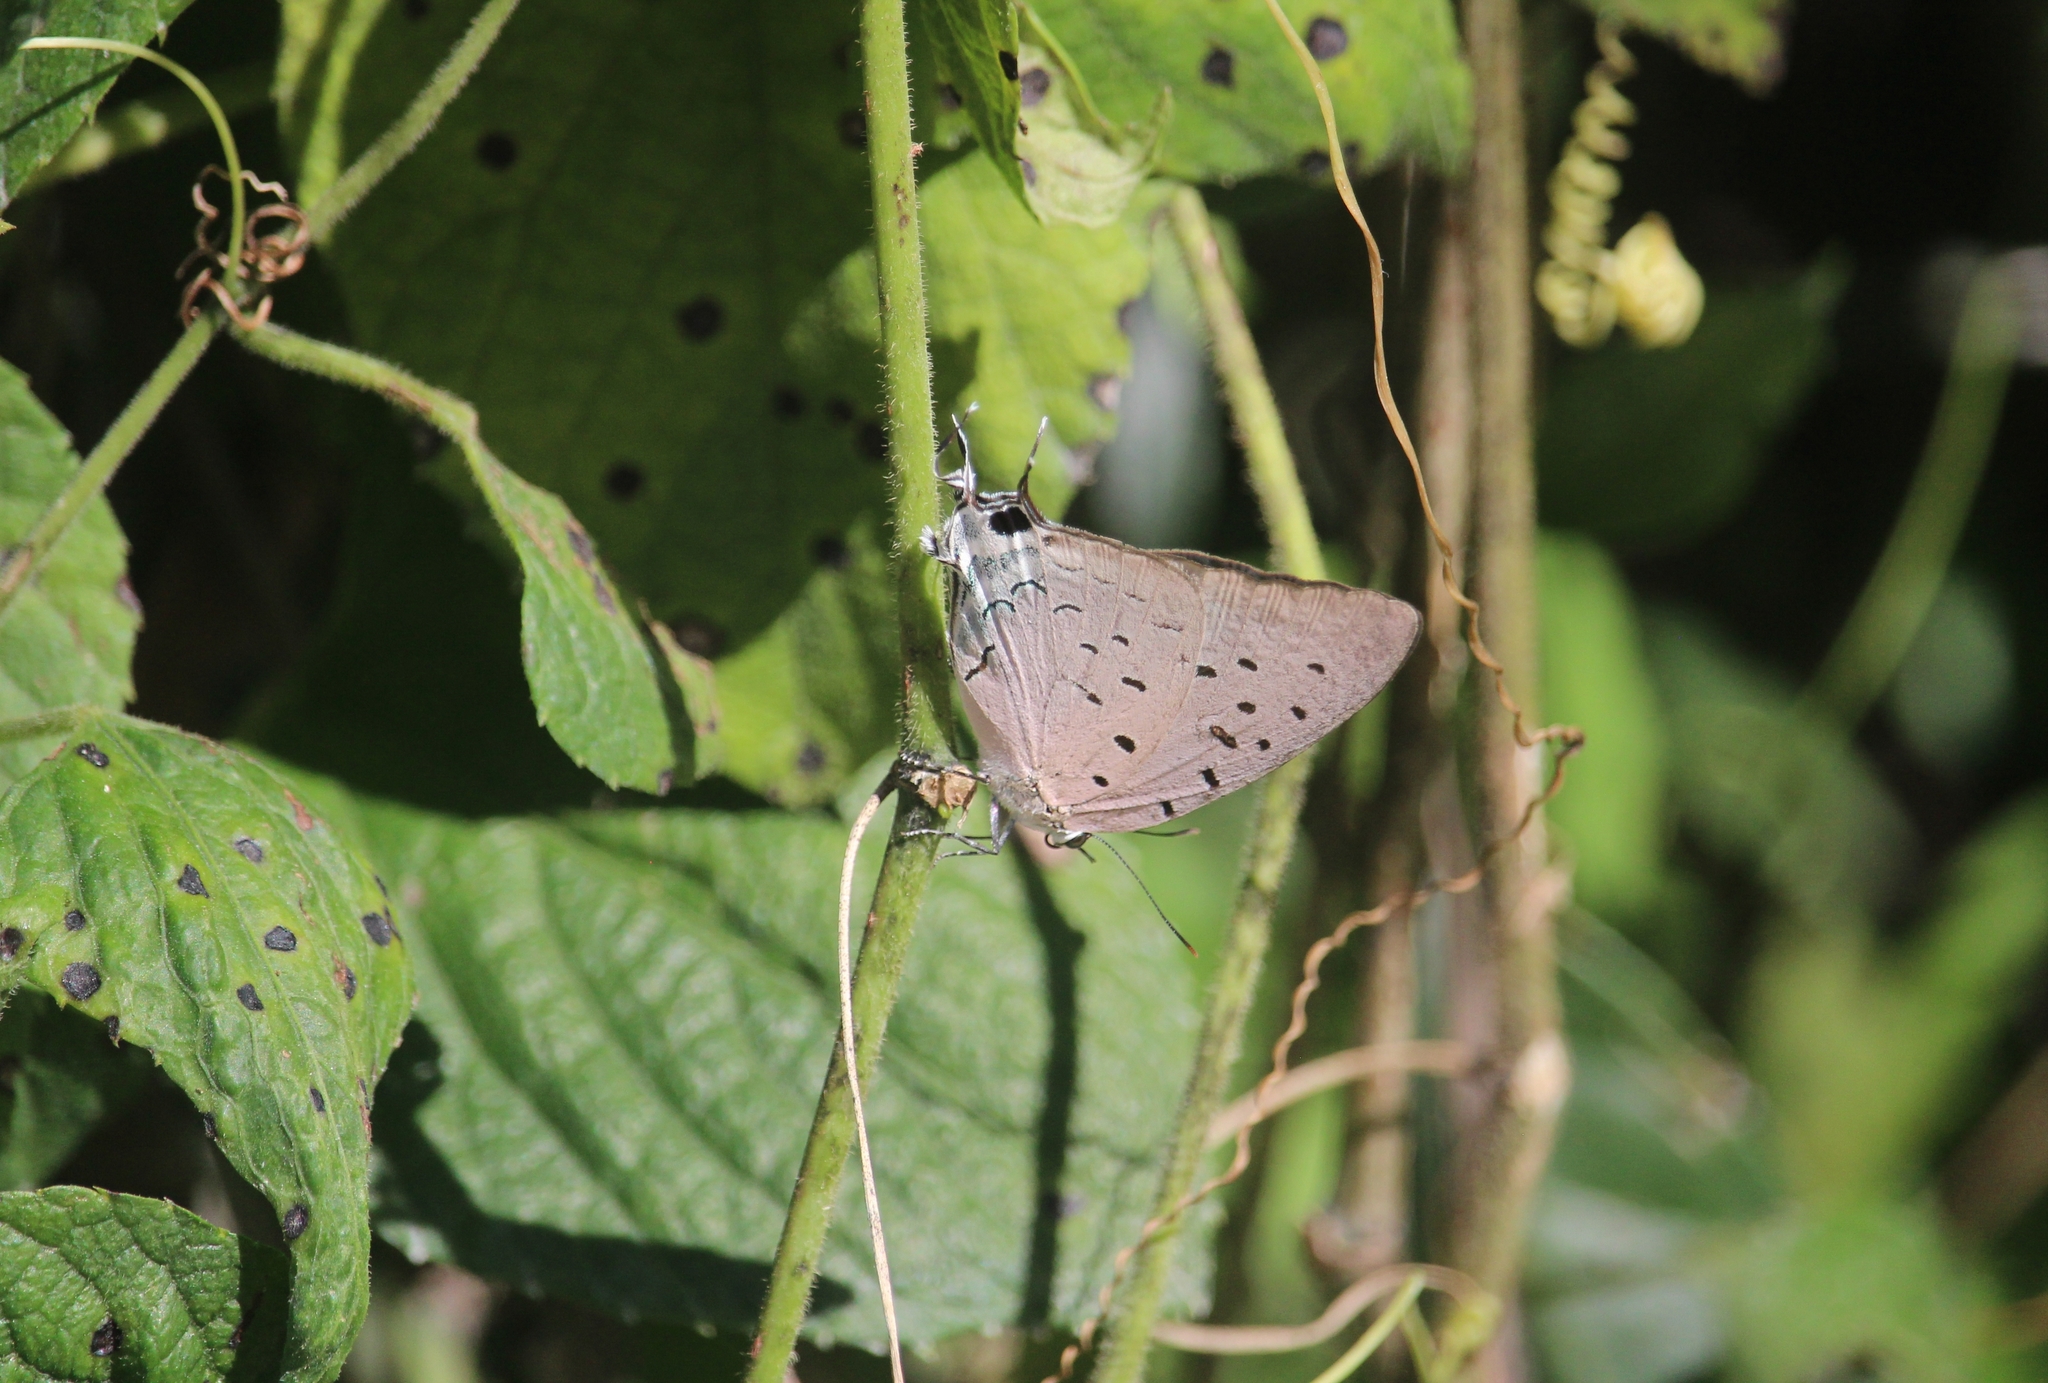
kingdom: Animalia
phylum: Arthropoda
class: Insecta
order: Lepidoptera
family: Lycaenidae
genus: Pseudolycaena
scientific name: Pseudolycaena damo
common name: Sky-blue hairstreak
